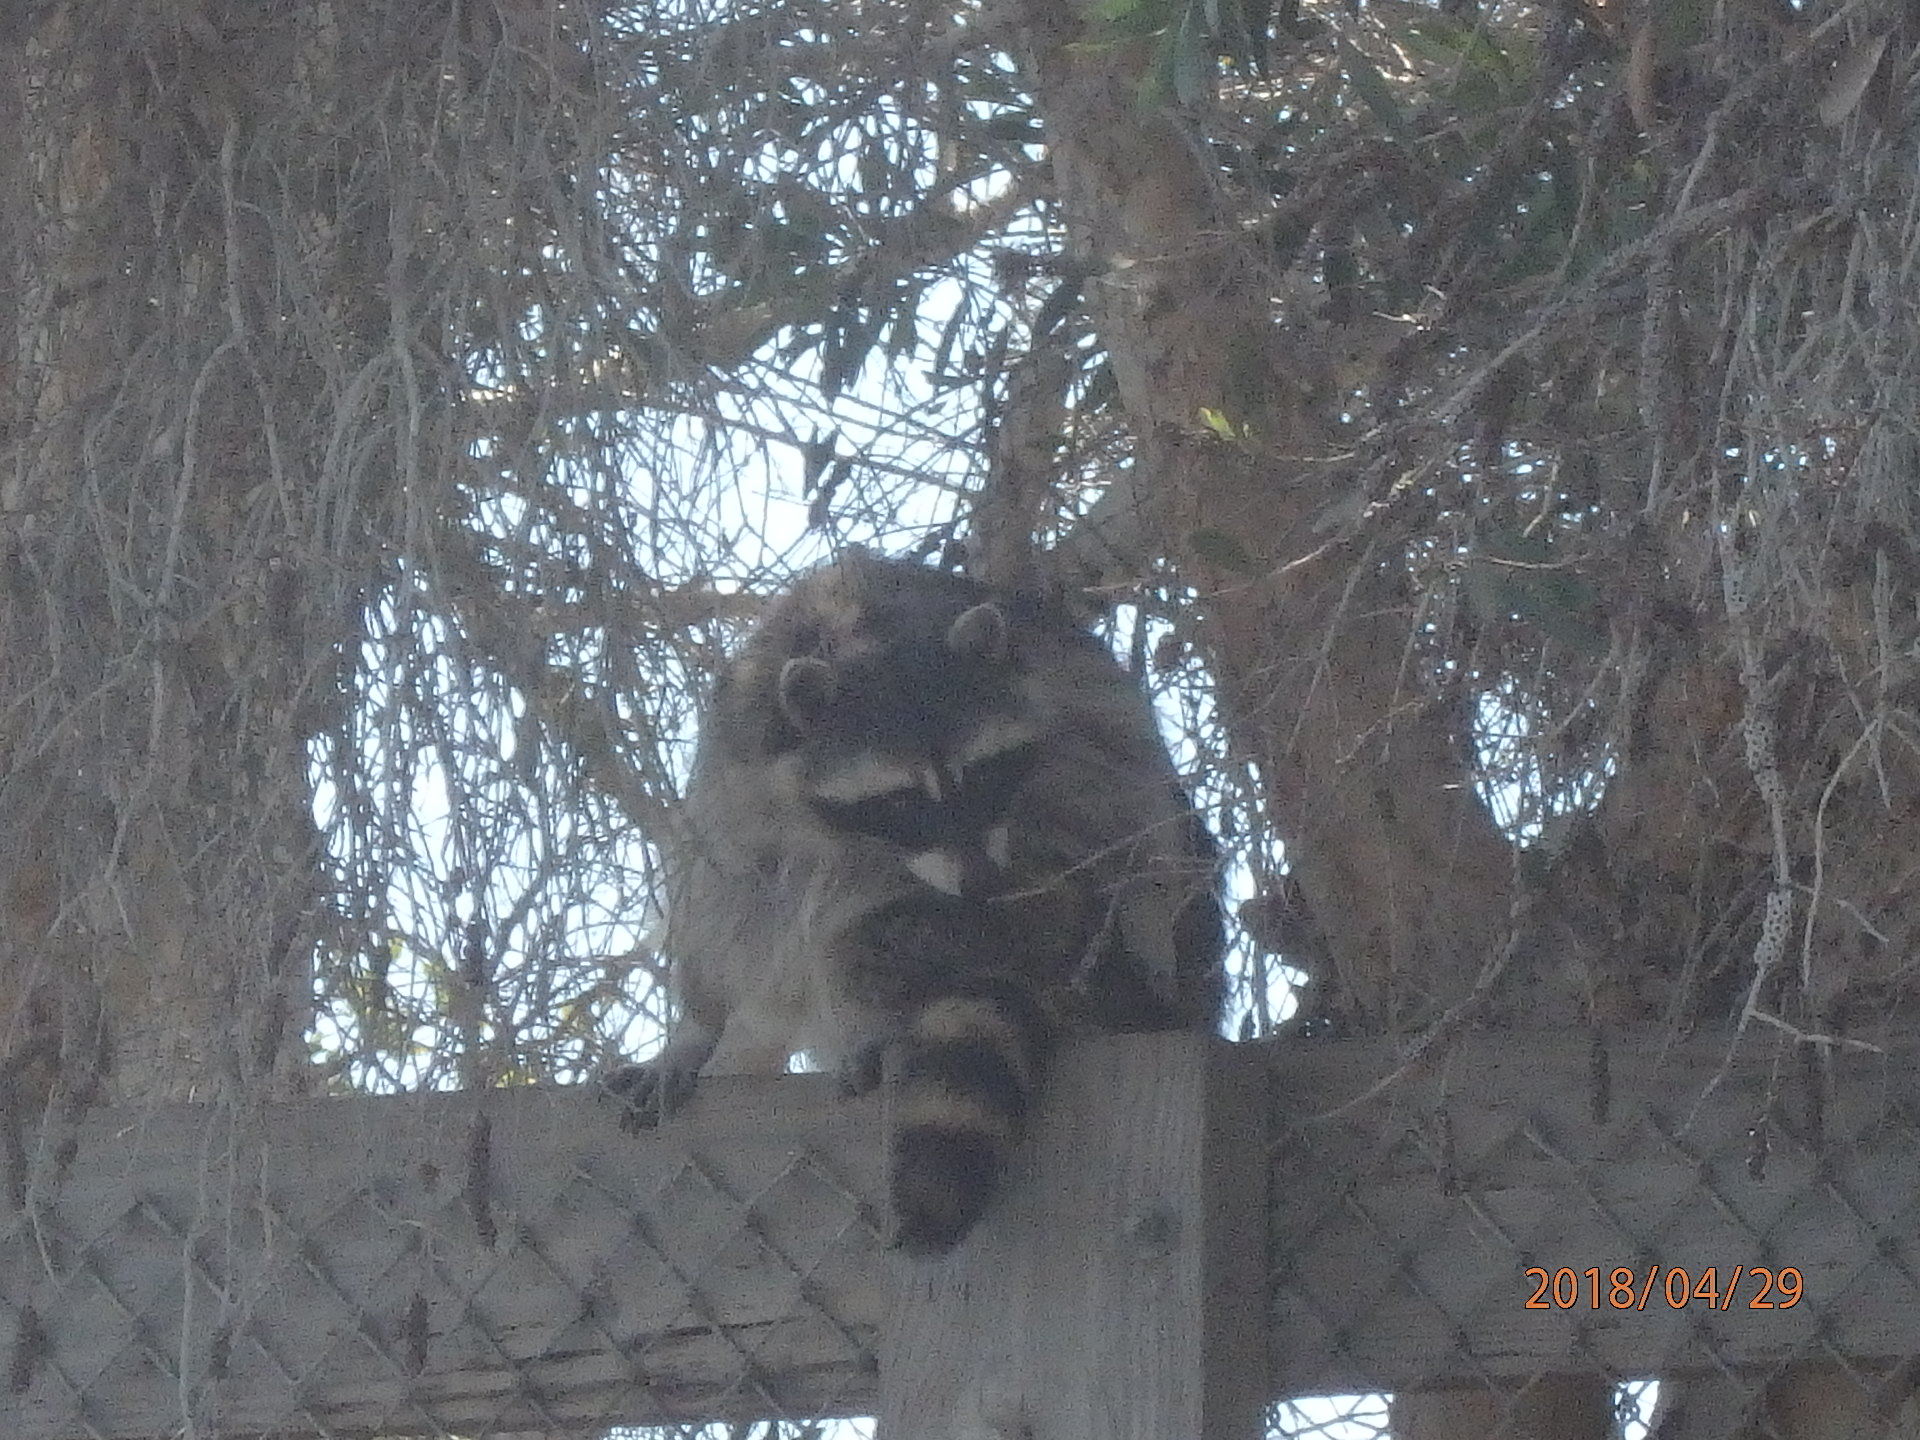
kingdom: Animalia
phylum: Chordata
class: Mammalia
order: Carnivora
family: Procyonidae
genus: Procyon
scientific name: Procyon lotor
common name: Raccoon
